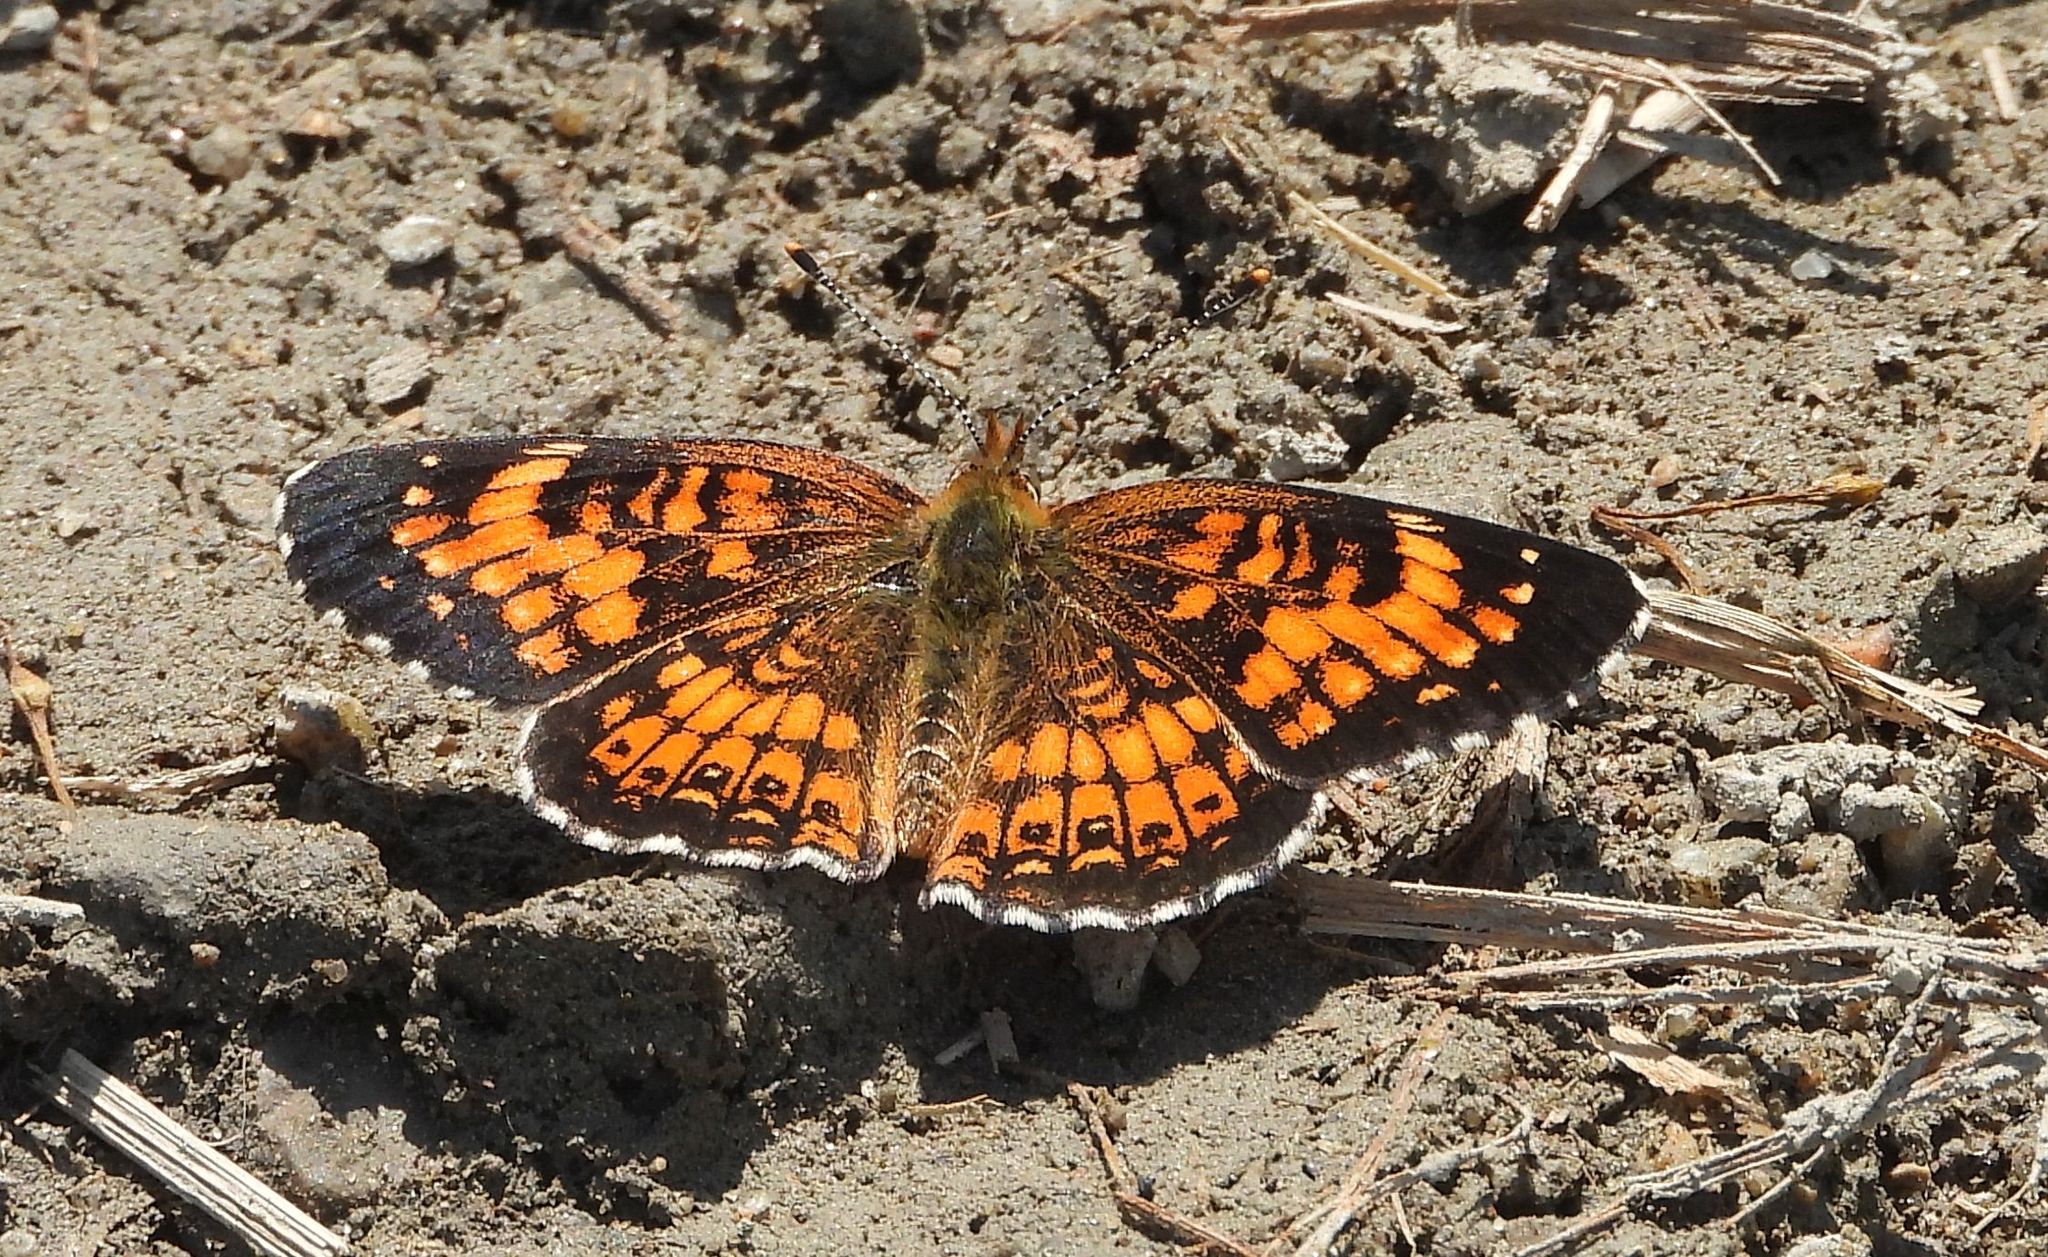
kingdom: Animalia
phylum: Arthropoda
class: Insecta
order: Lepidoptera
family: Nymphalidae
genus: Chlosyne
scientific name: Chlosyne harrisii
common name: Harris's checkerspot
